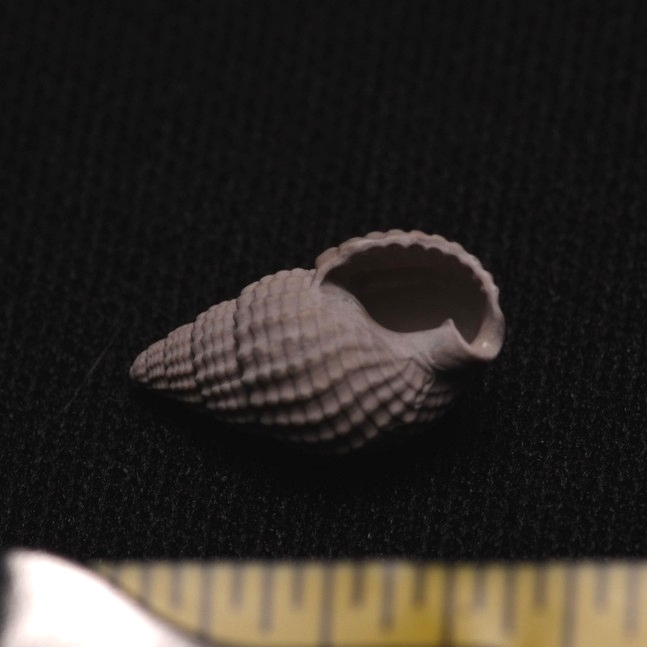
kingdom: Animalia
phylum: Mollusca
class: Gastropoda
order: Neogastropoda
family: Nassariidae
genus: Ilyanassa
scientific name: Ilyanassa trivittata
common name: Three-line mudsnail
